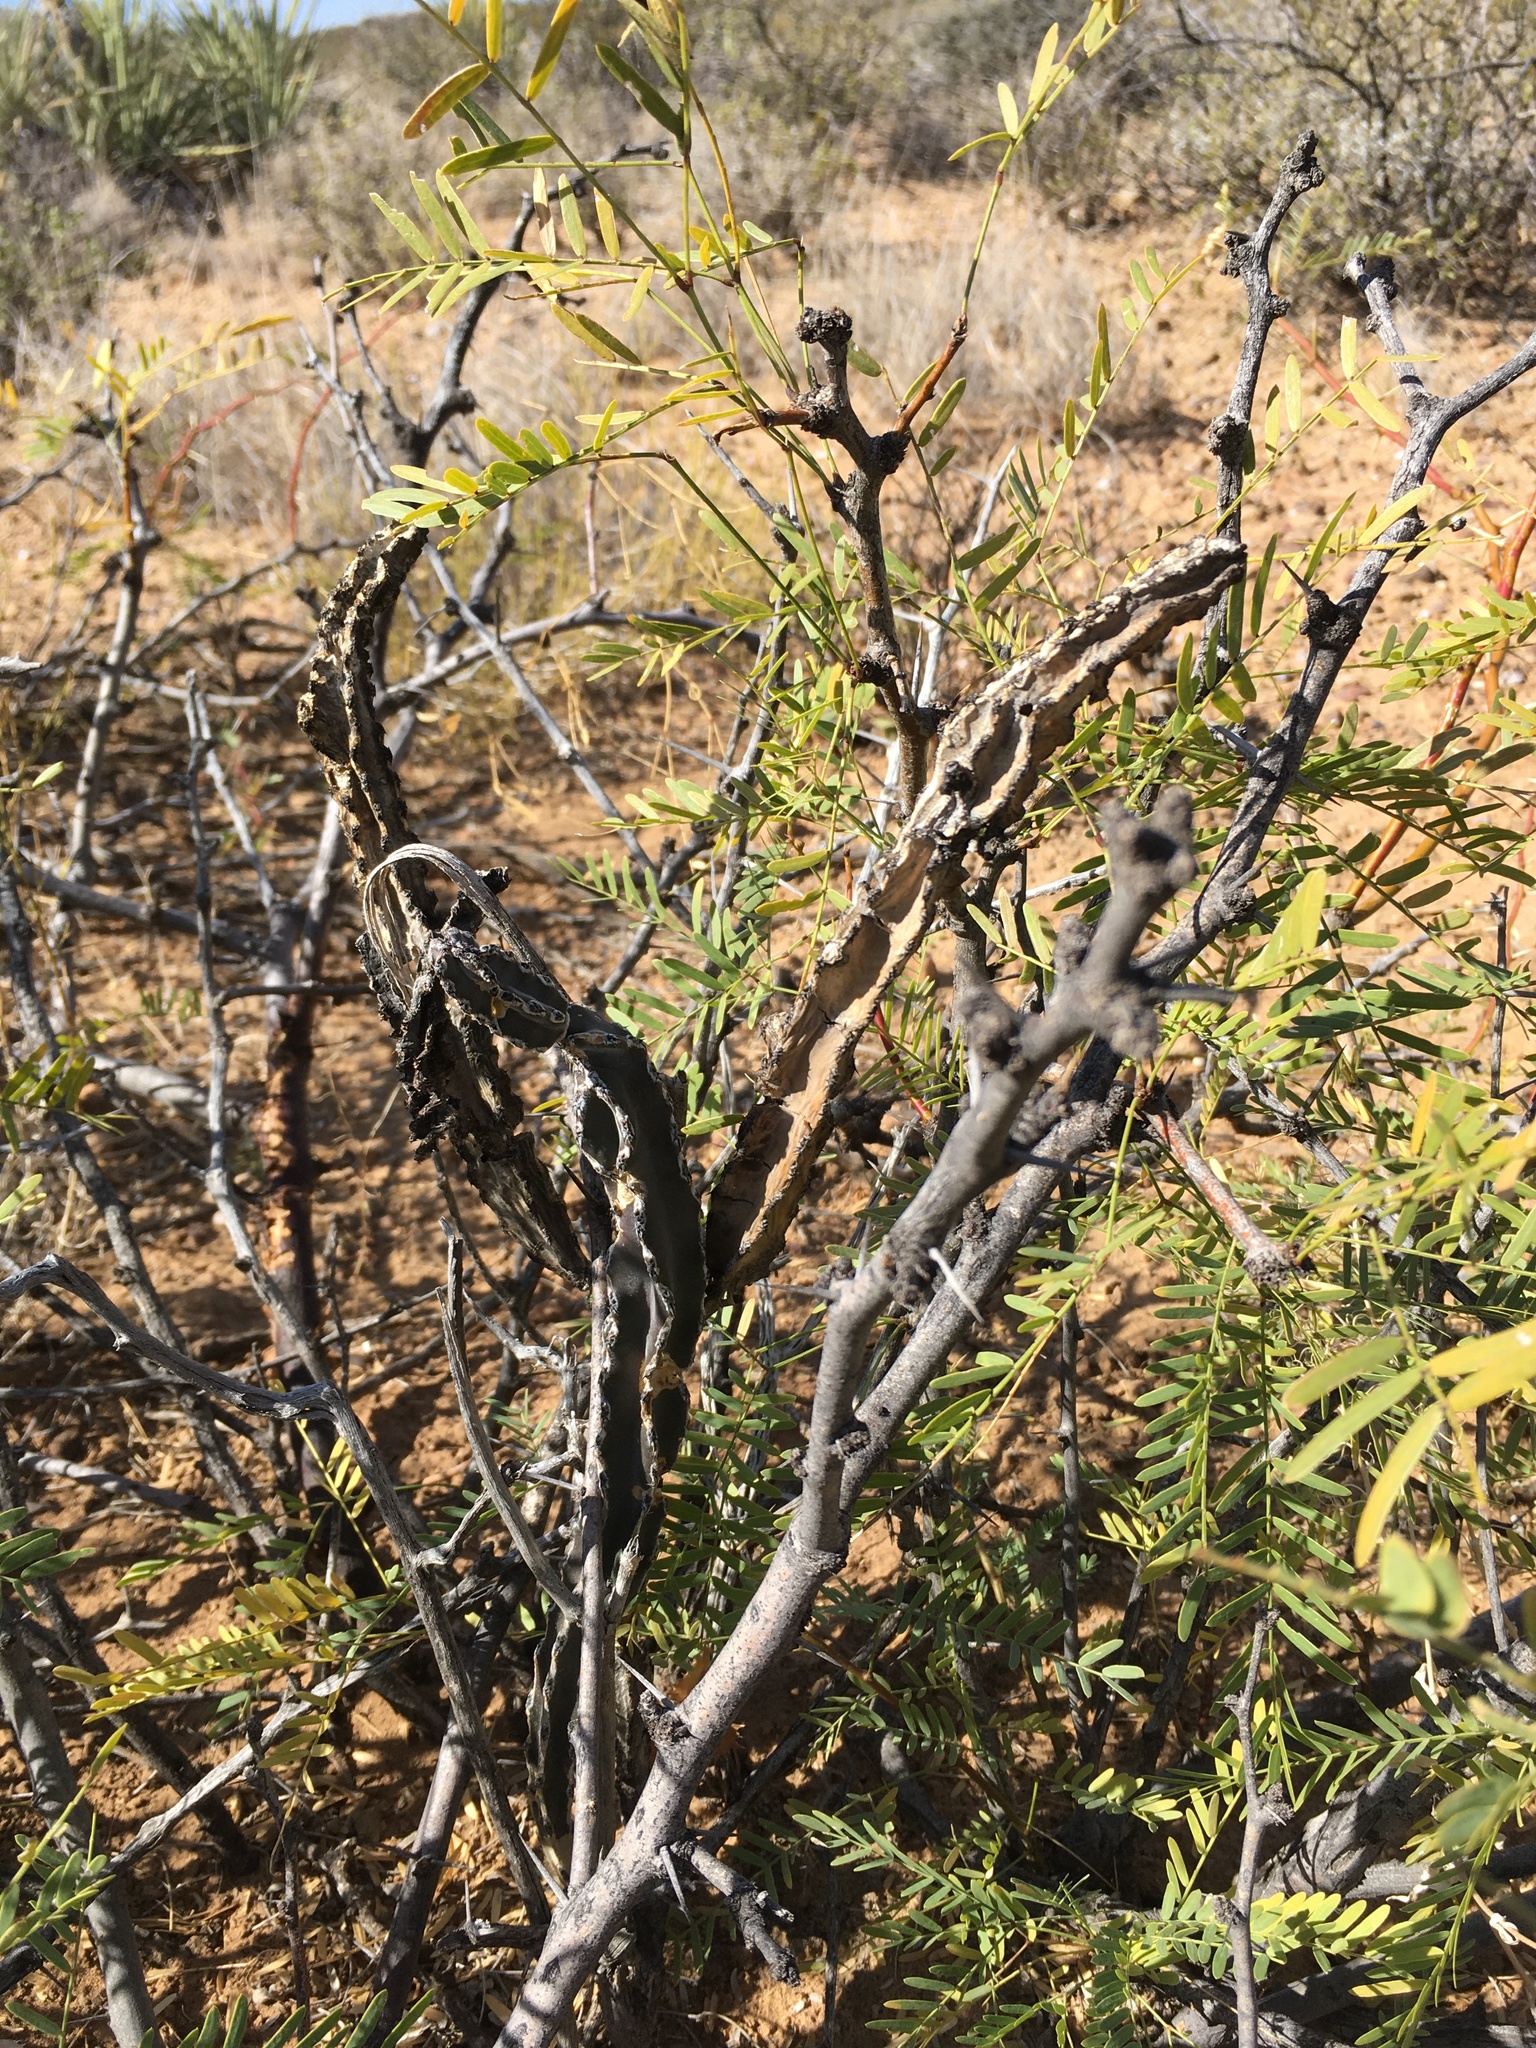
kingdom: Plantae
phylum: Tracheophyta
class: Magnoliopsida
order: Caryophyllales
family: Cactaceae
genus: Peniocereus
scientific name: Peniocereus greggii
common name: Desert night-blooming cereus
